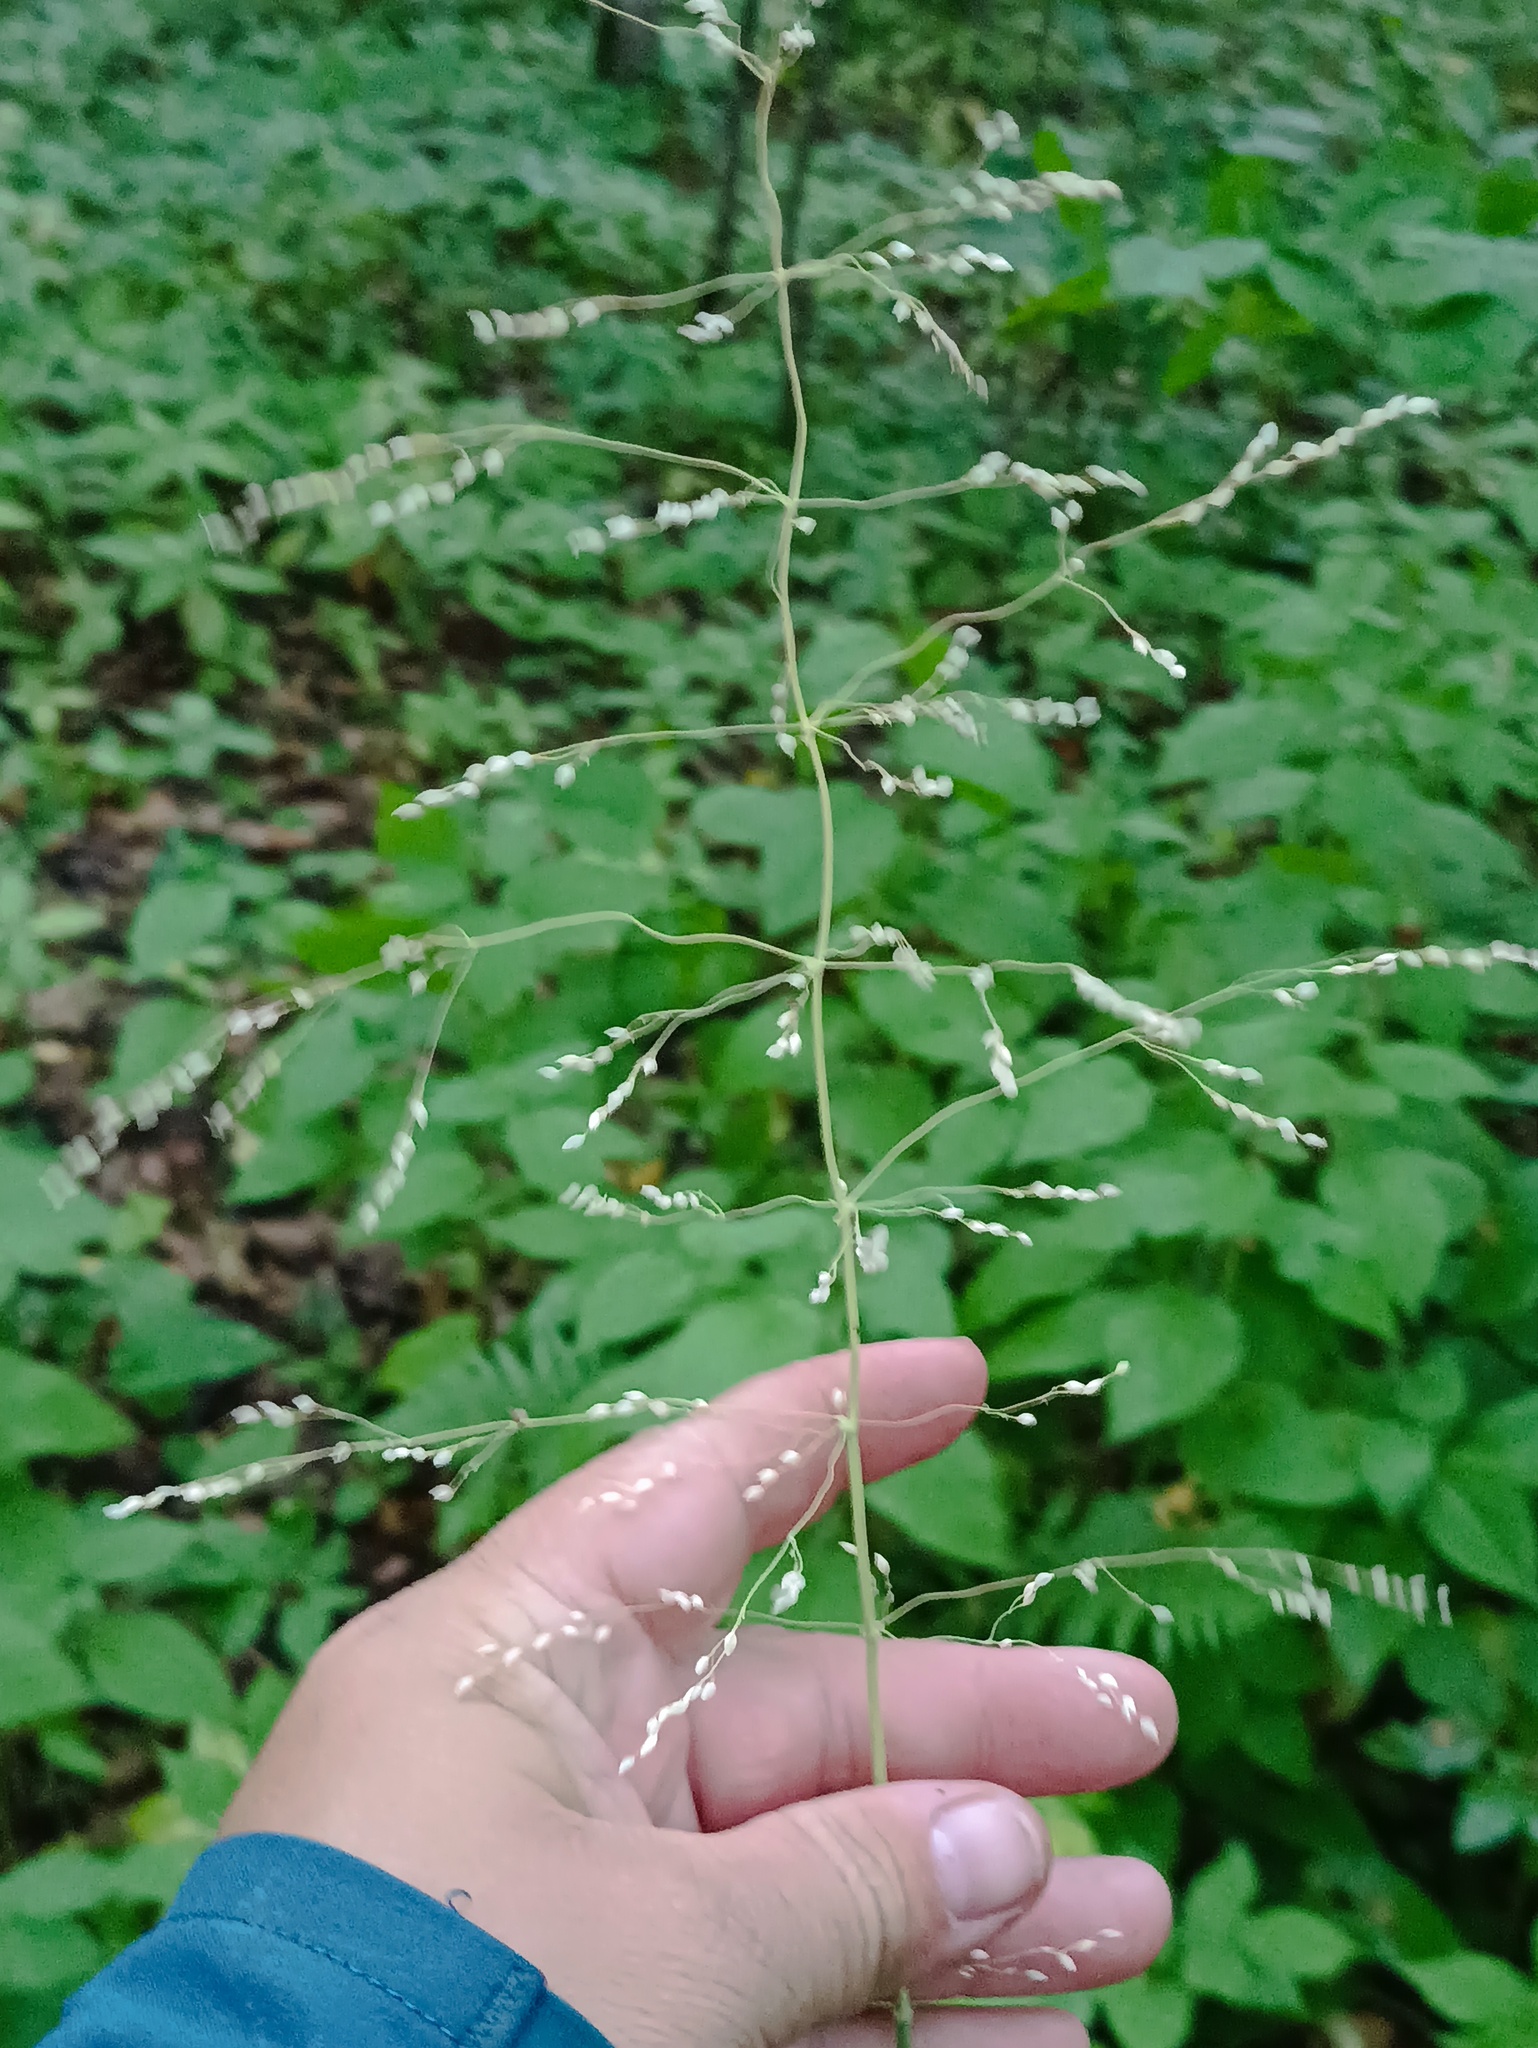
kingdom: Plantae
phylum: Tracheophyta
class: Liliopsida
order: Poales
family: Poaceae
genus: Milium
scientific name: Milium effusum
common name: Wood millet
